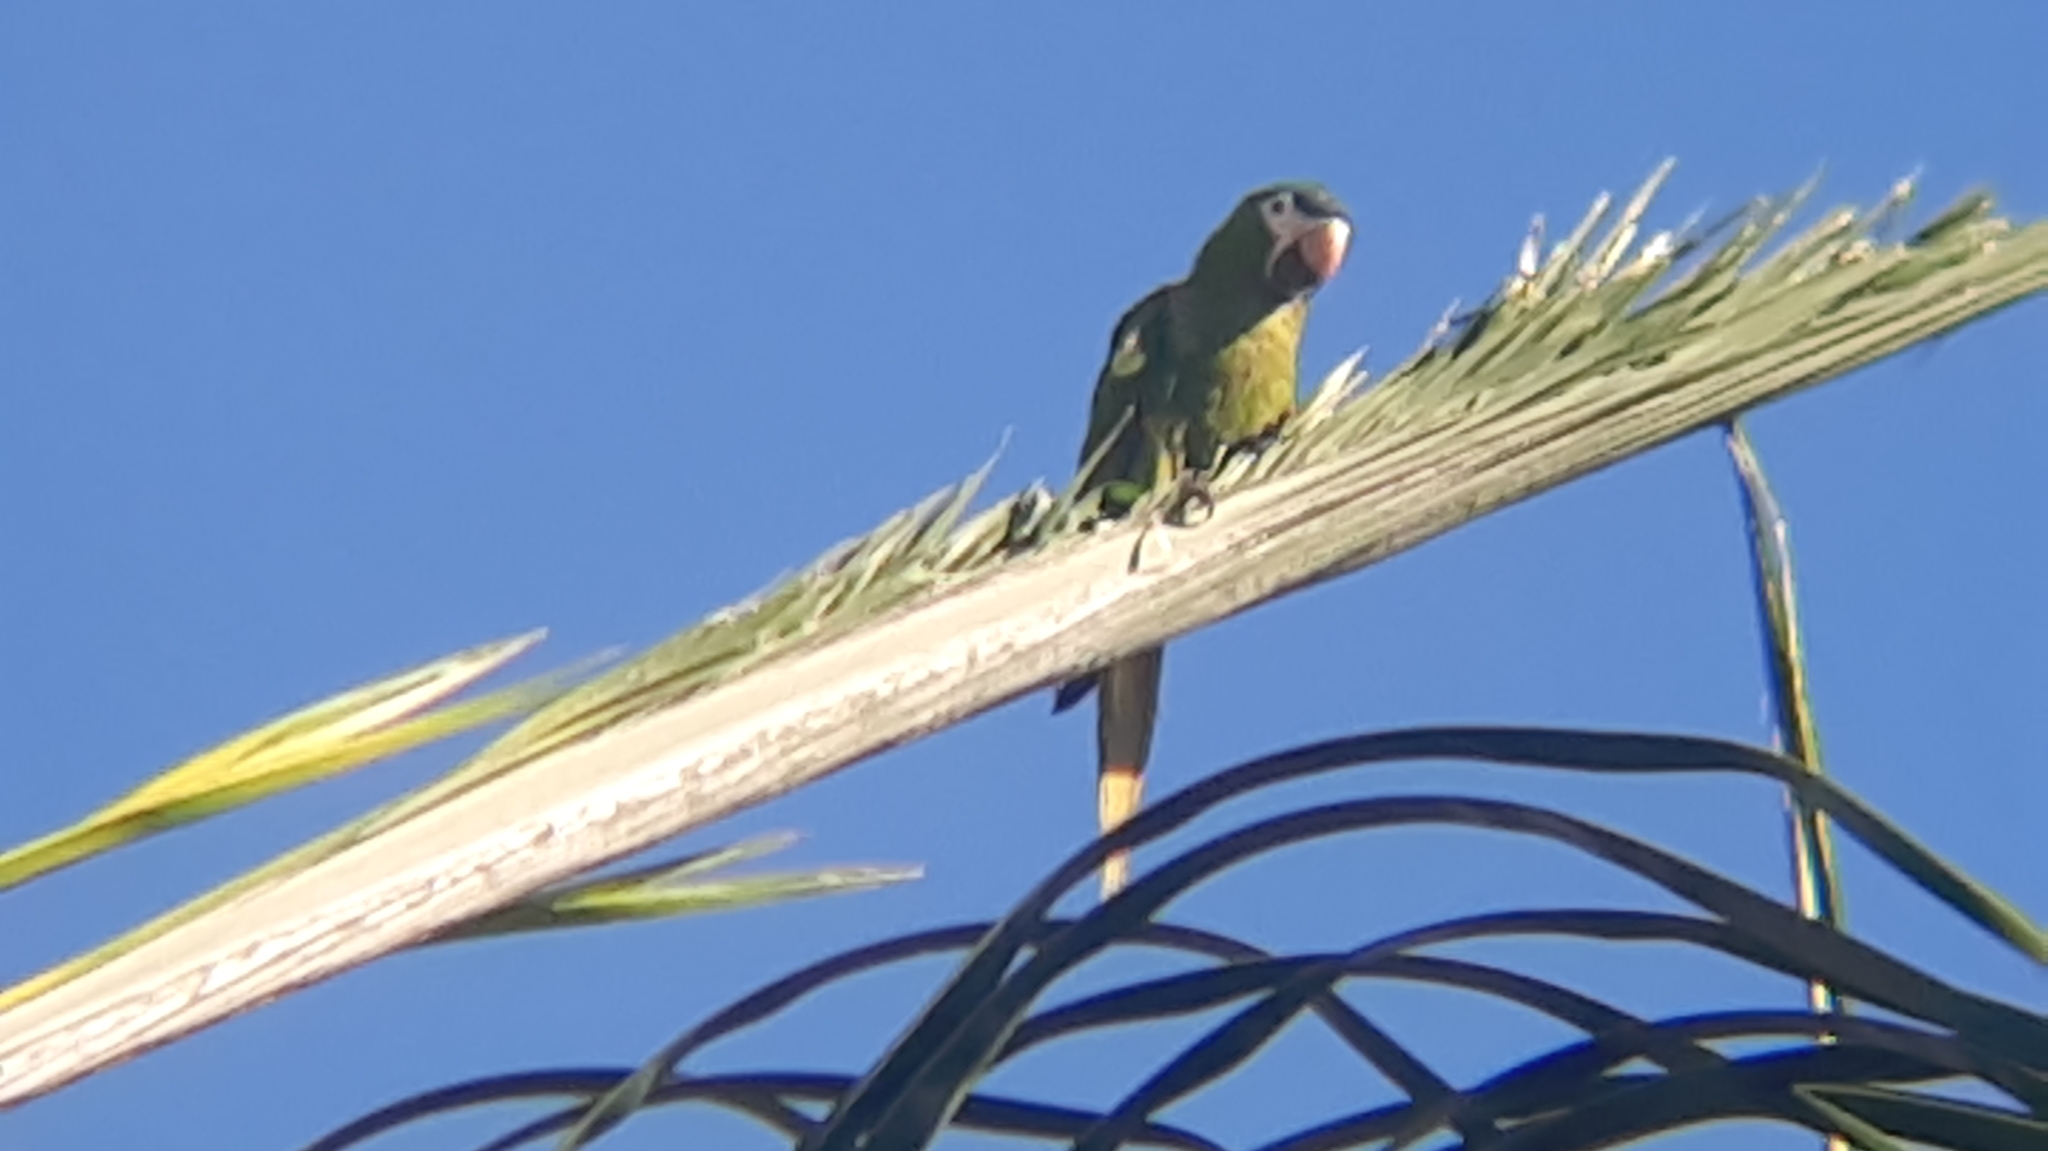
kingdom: Animalia
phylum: Chordata
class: Aves
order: Psittaciformes
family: Psittacidae
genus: Diopsittaca
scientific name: Diopsittaca nobilis
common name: Red-shouldered macaw
